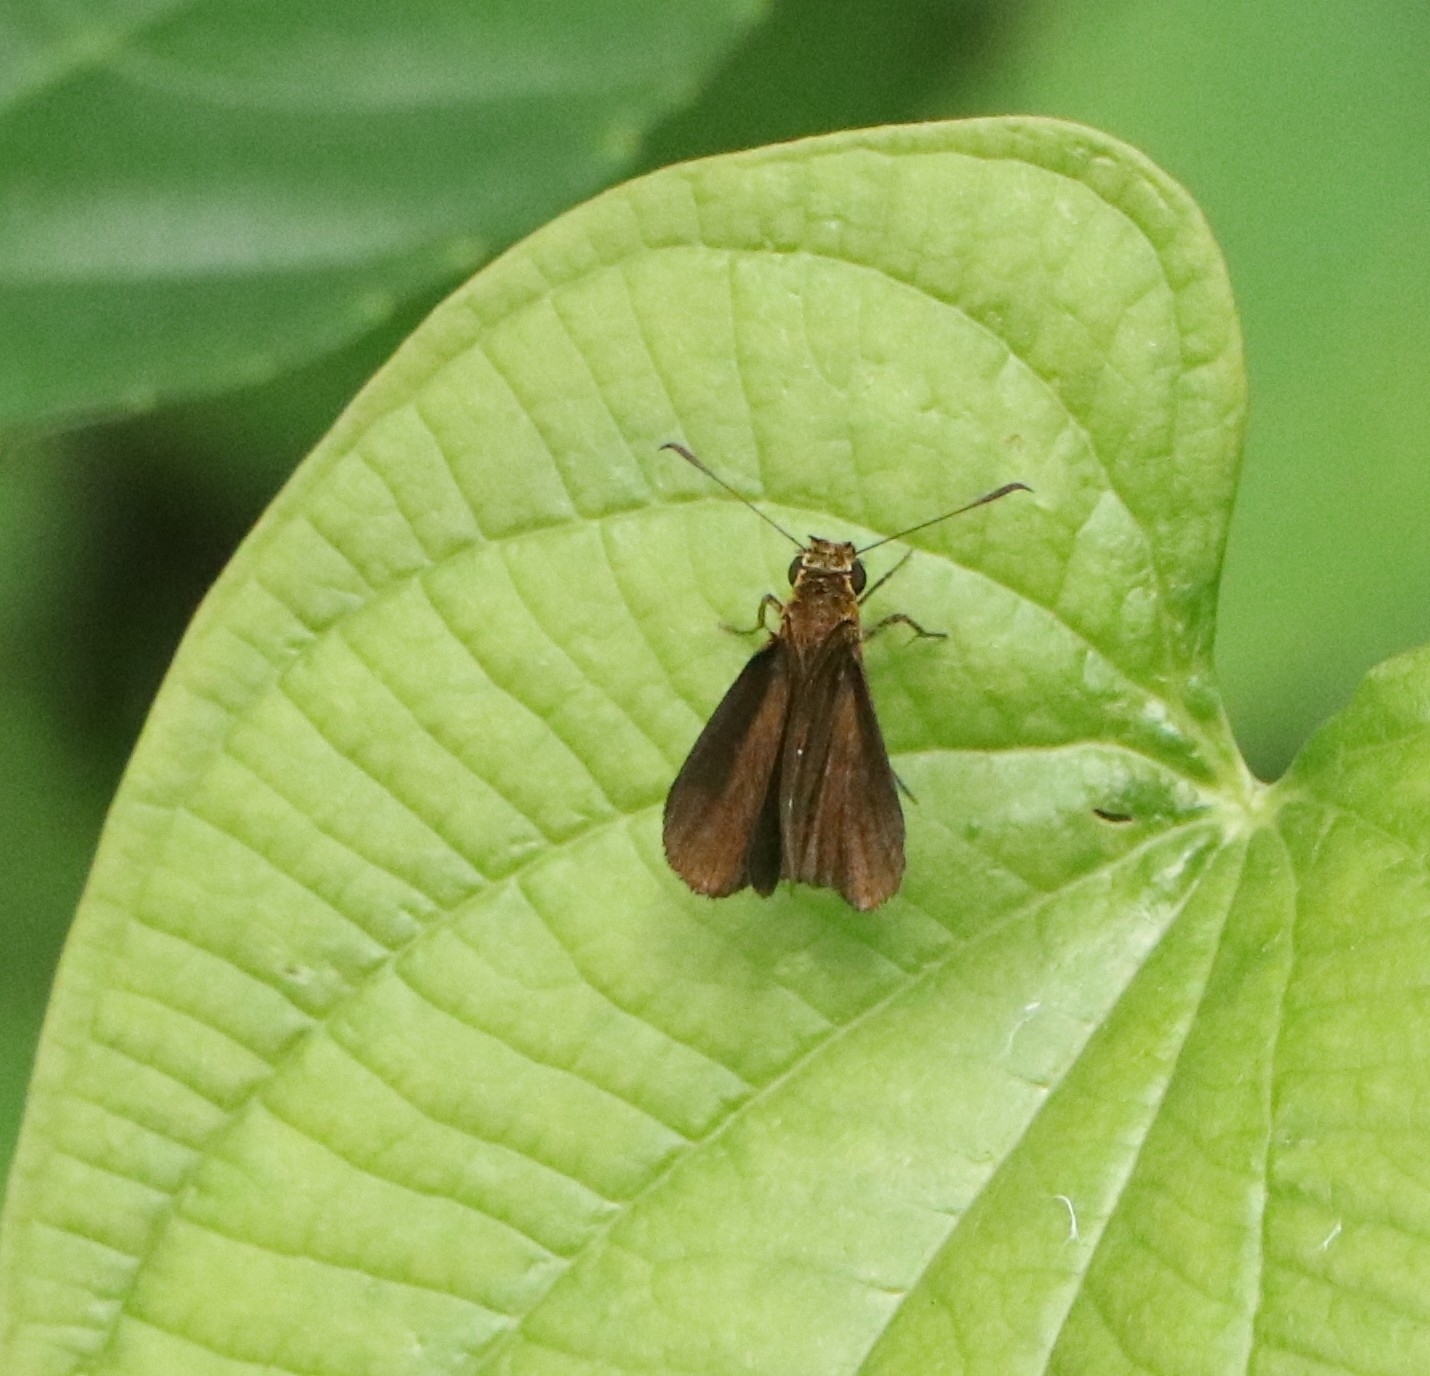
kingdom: Animalia
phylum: Arthropoda
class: Insecta
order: Lepidoptera
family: Hesperiidae
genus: Iambrix
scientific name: Iambrix salsala
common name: Chestnut bob
